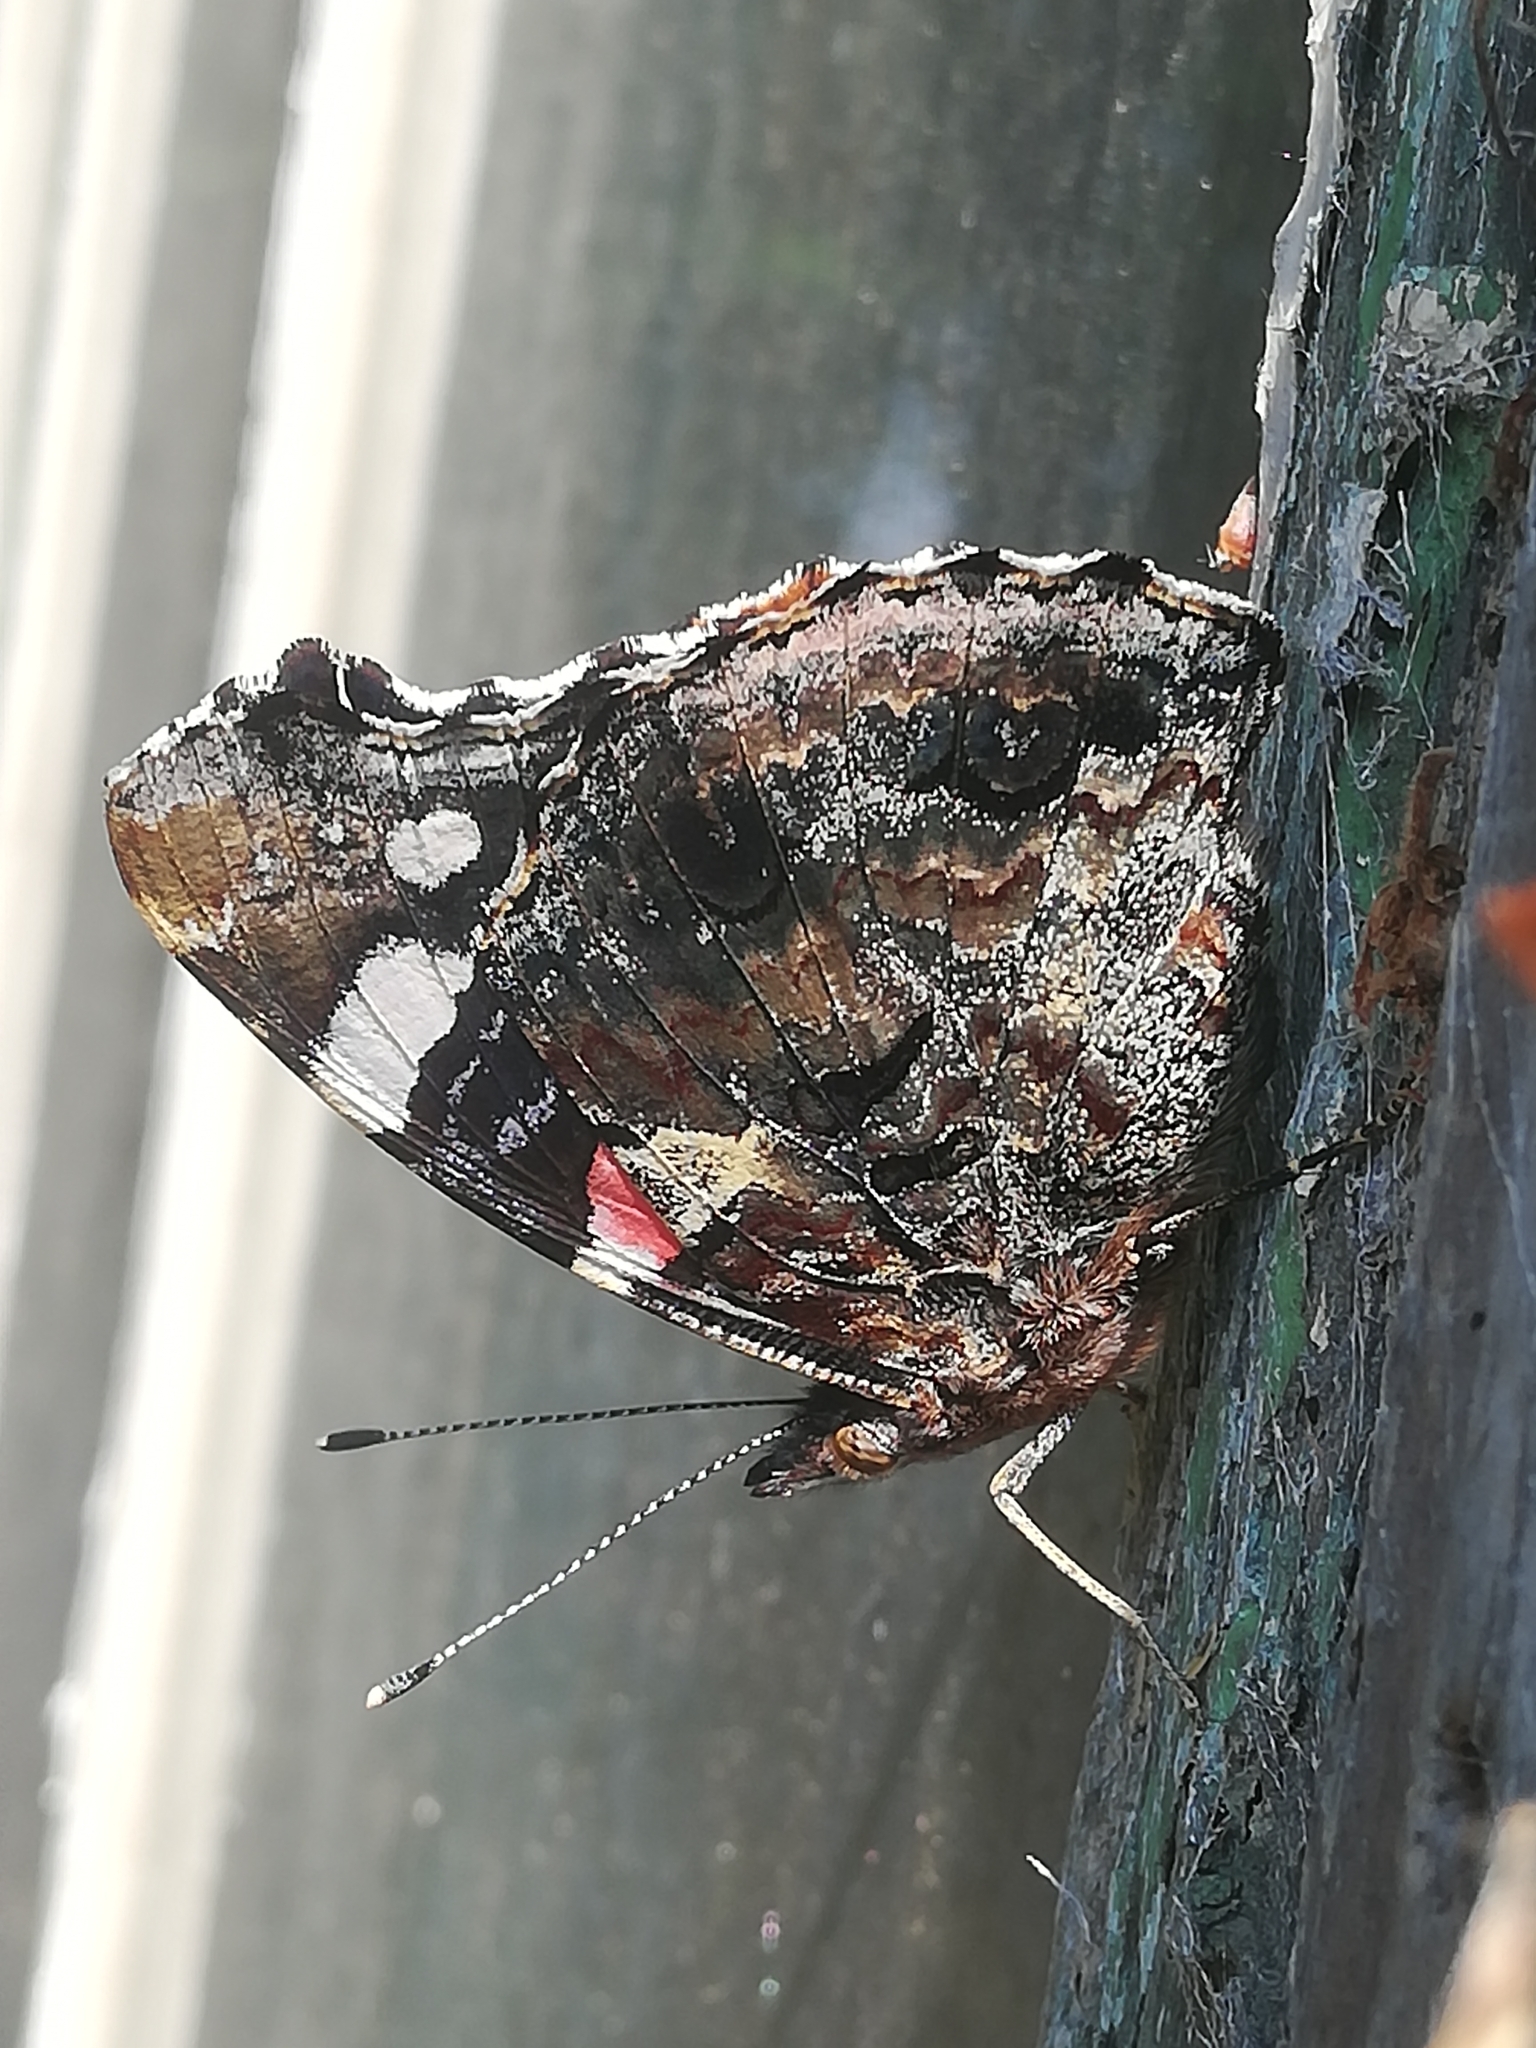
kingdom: Animalia
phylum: Arthropoda
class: Insecta
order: Lepidoptera
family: Nymphalidae
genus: Vanessa
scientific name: Vanessa atalanta
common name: Red admiral
